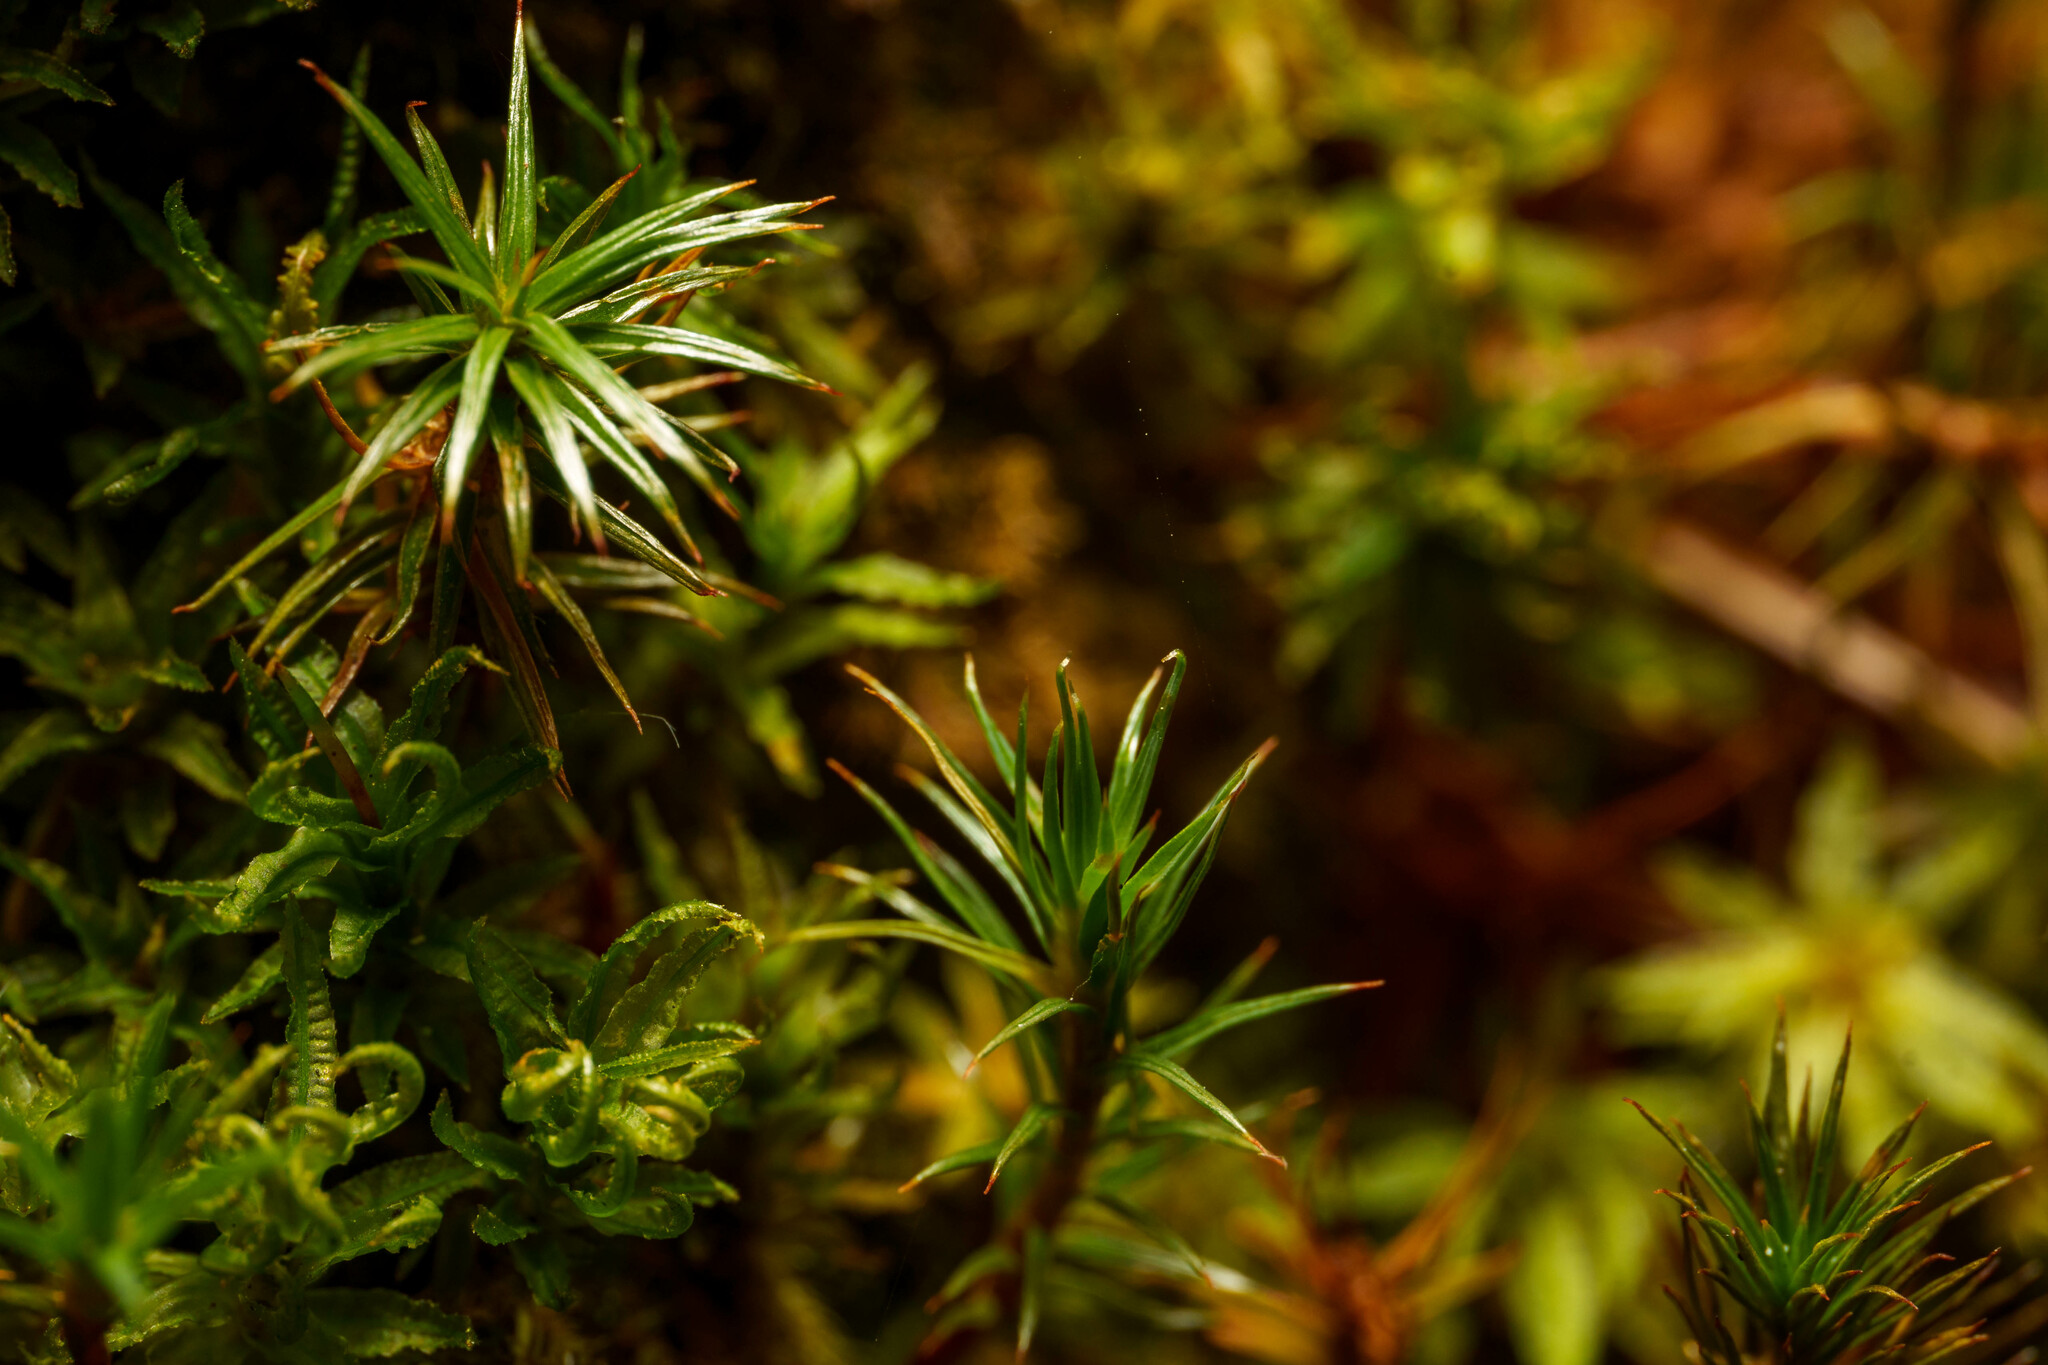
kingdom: Plantae
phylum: Bryophyta
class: Polytrichopsida
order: Polytrichales
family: Polytrichaceae
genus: Polytrichum
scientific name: Polytrichum juniperinum
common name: Juniper haircap moss
